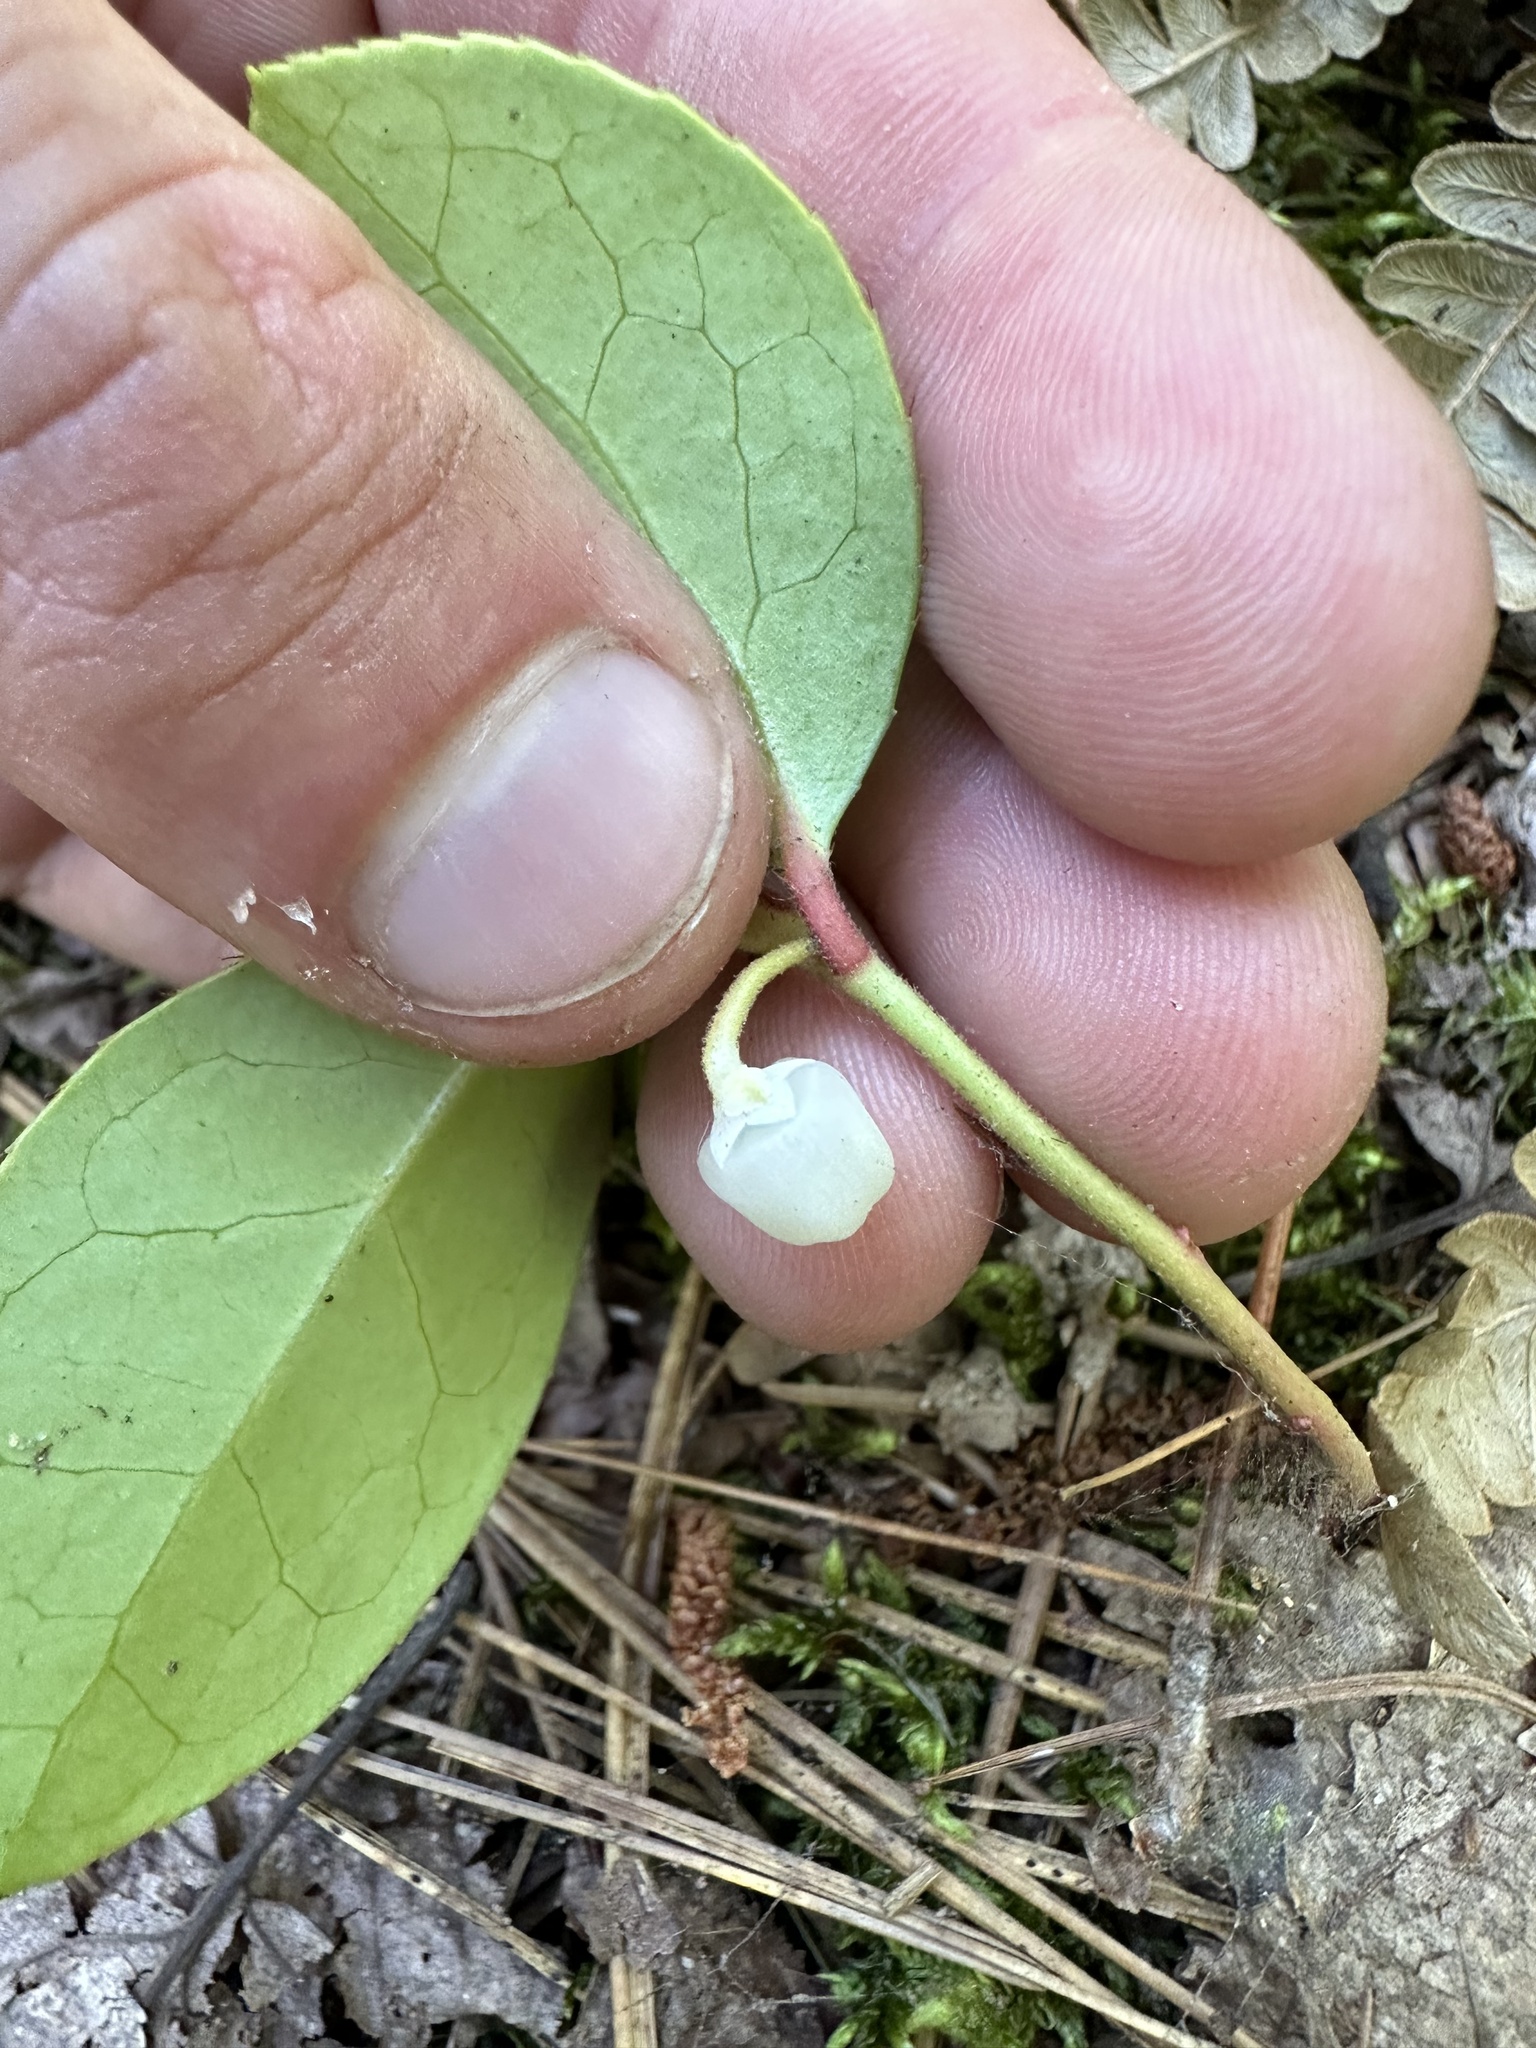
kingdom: Plantae
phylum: Tracheophyta
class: Magnoliopsida
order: Ericales
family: Ericaceae
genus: Gaultheria
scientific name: Gaultheria procumbens
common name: Checkerberry
